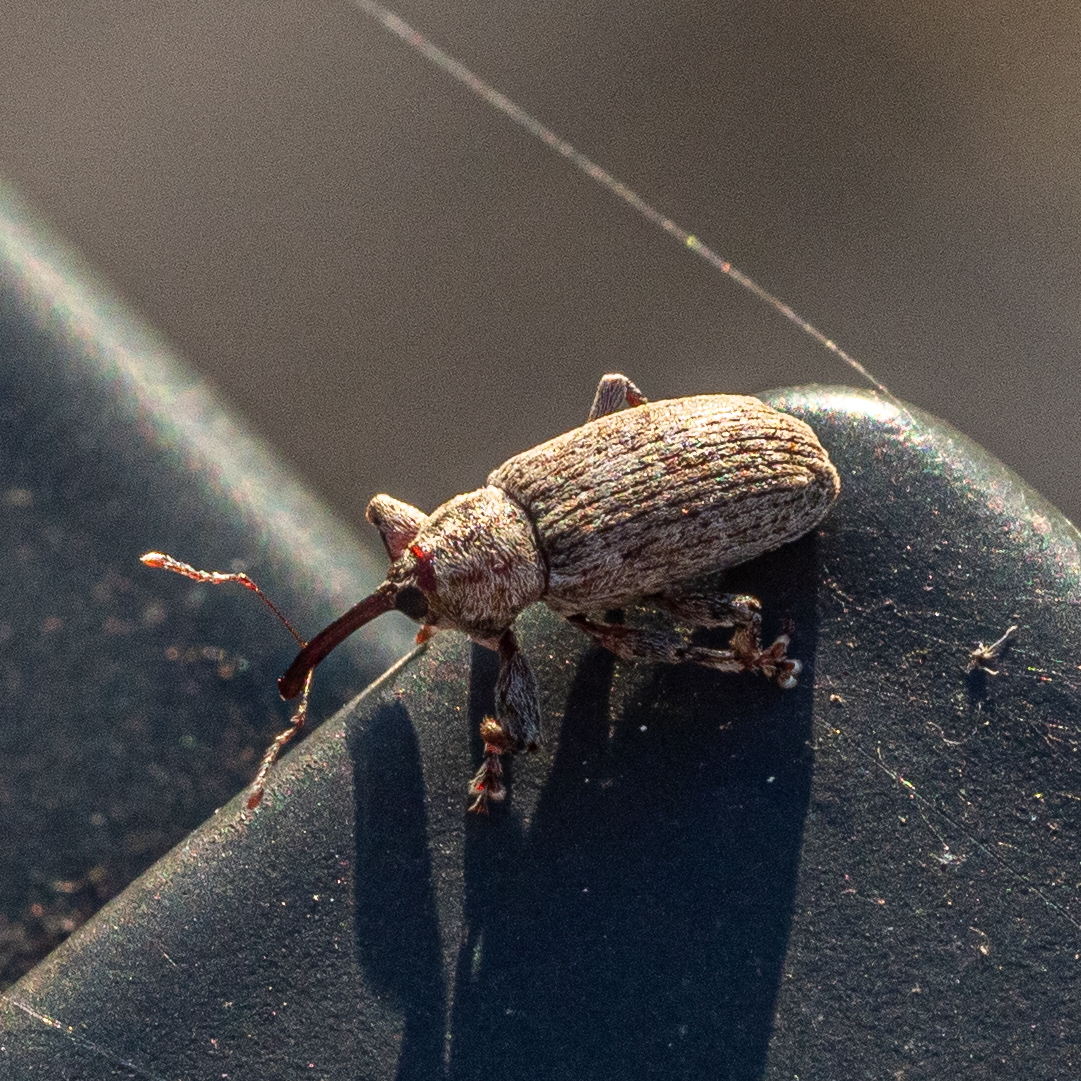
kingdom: Animalia
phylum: Arthropoda
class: Insecta
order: Coleoptera
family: Curculionidae
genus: Dorytomus
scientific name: Dorytomus tremulae
